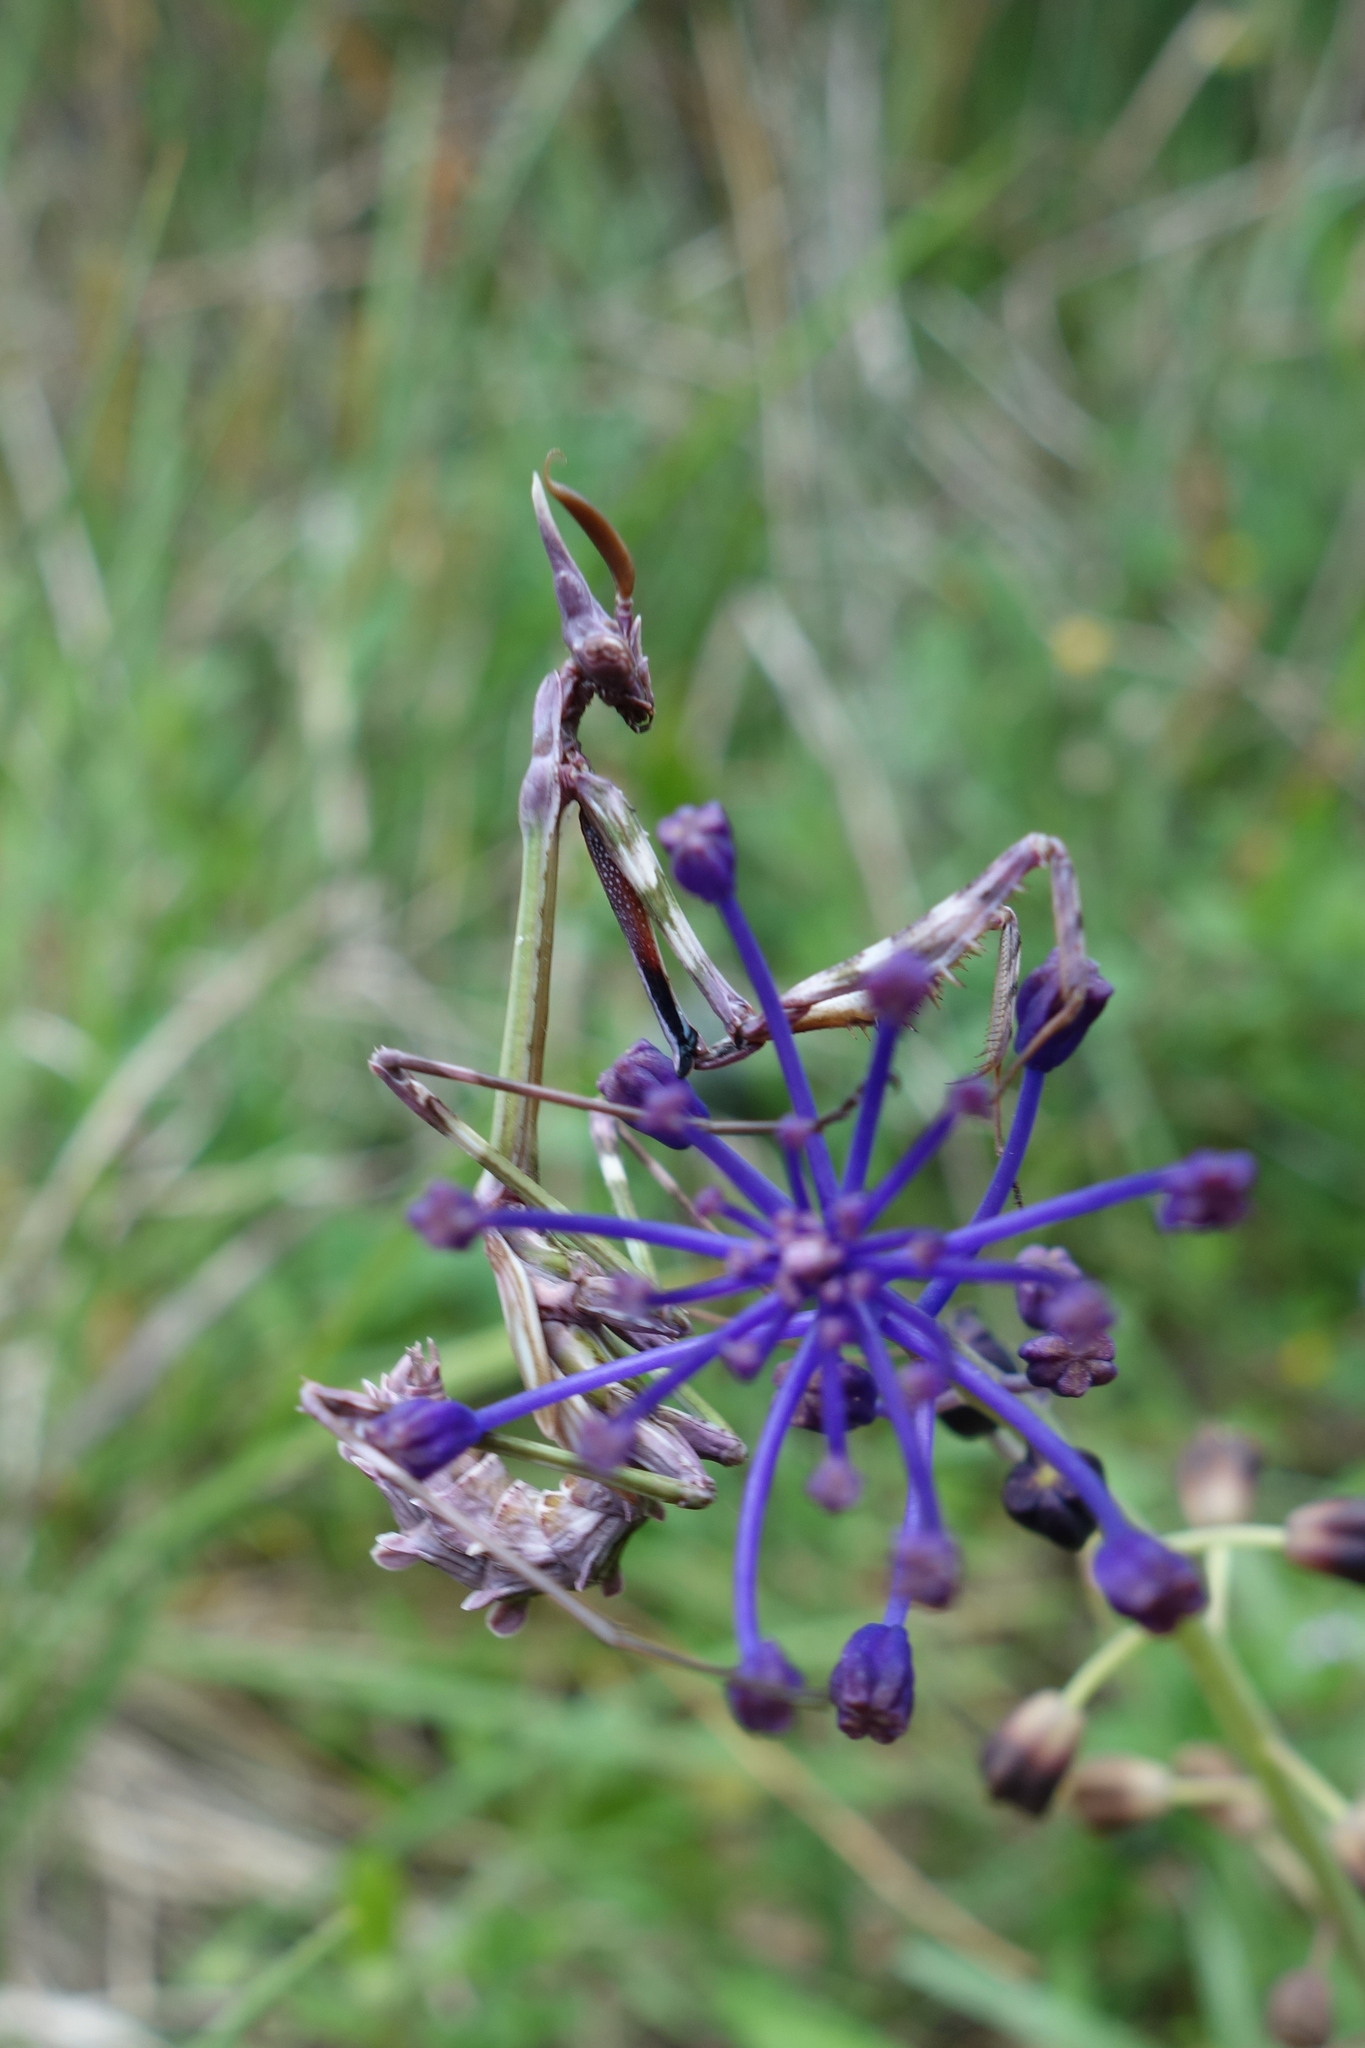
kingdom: Animalia
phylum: Arthropoda
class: Insecta
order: Mantodea
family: Empusidae
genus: Empusa
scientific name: Empusa pennata
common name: Conehead mantis
